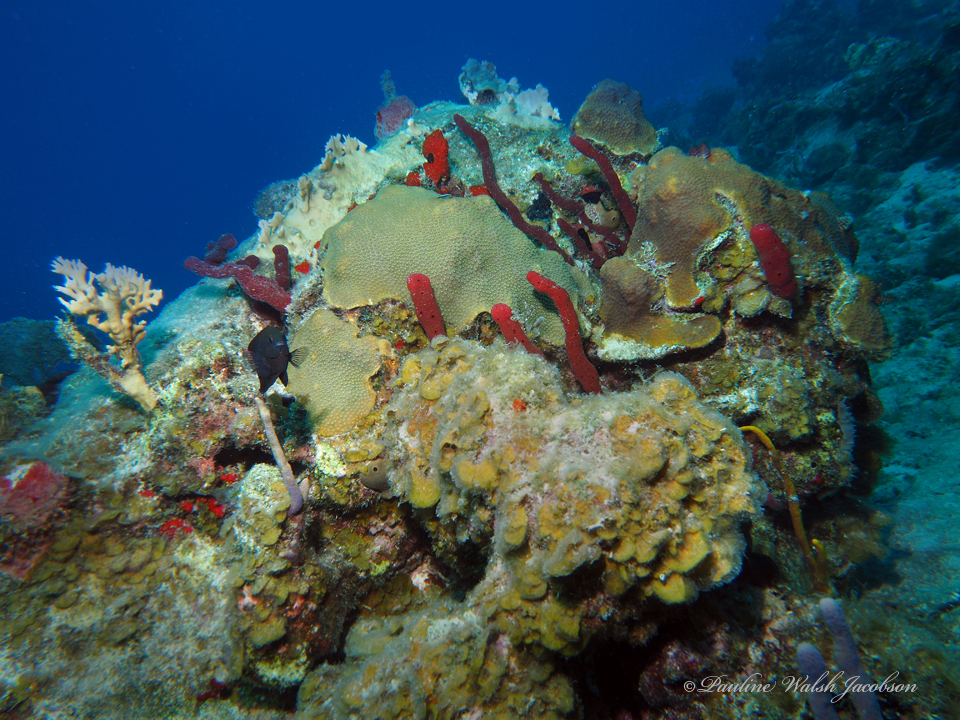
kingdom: Animalia
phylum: Porifera
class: Demospongiae
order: Haplosclerida
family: Niphatidae
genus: Amphimedon
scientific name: Amphimedon compressa
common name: Red sponge
